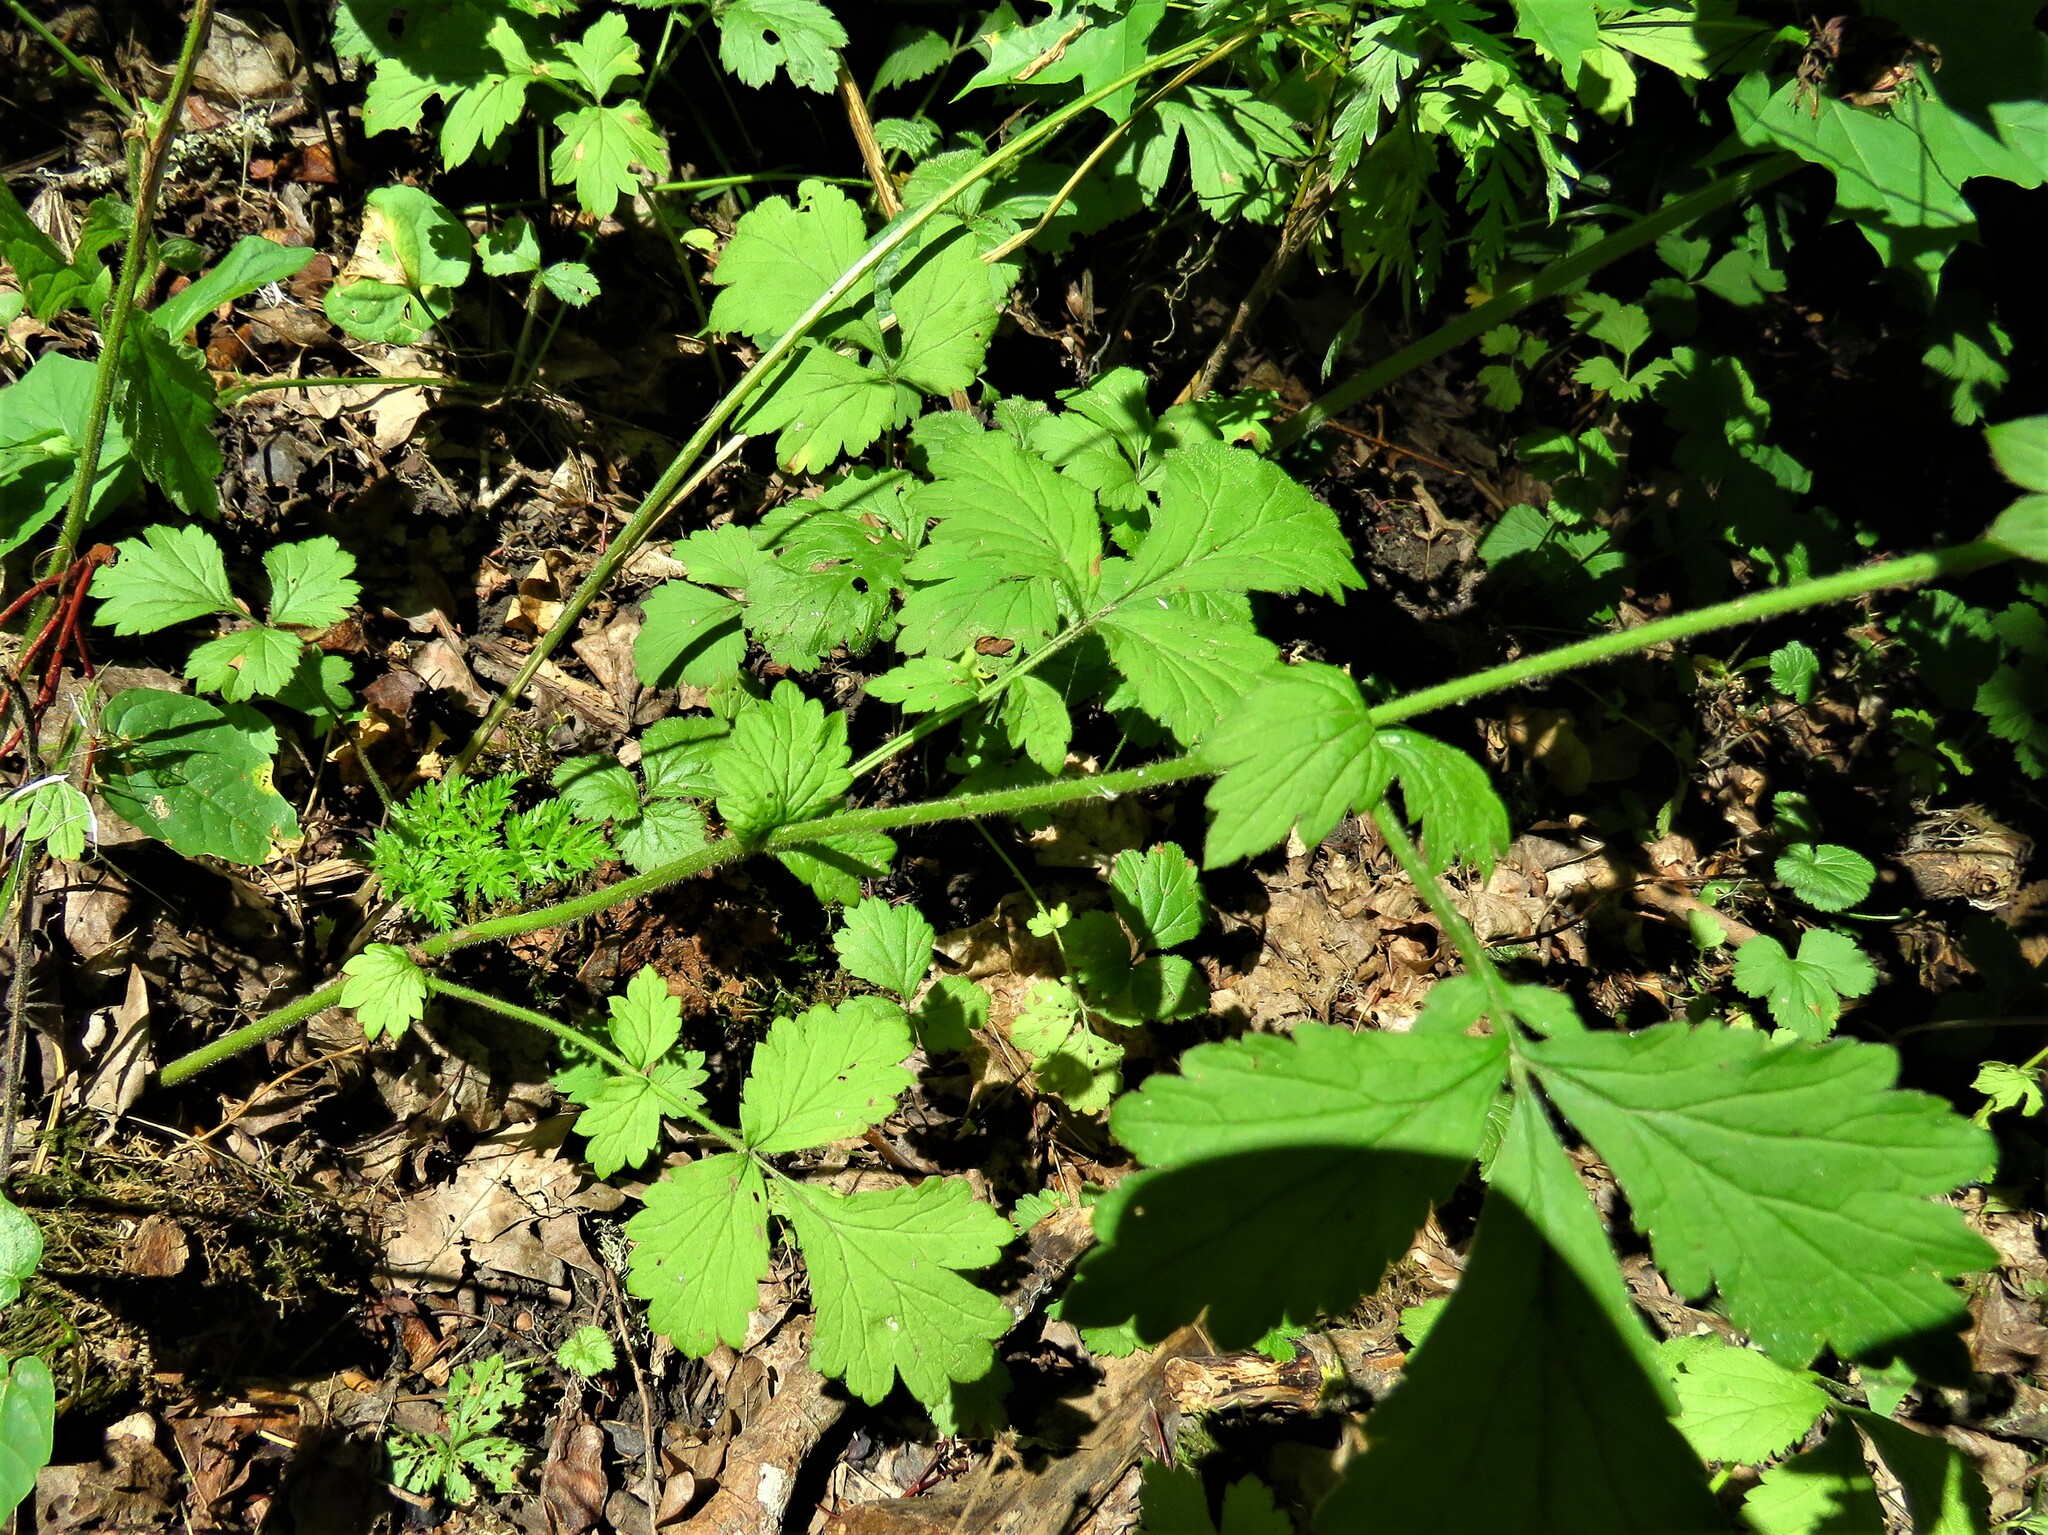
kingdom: Plantae
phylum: Tracheophyta
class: Magnoliopsida
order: Rosales
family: Rosaceae
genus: Geum
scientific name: Geum urbanum
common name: Wood avens
